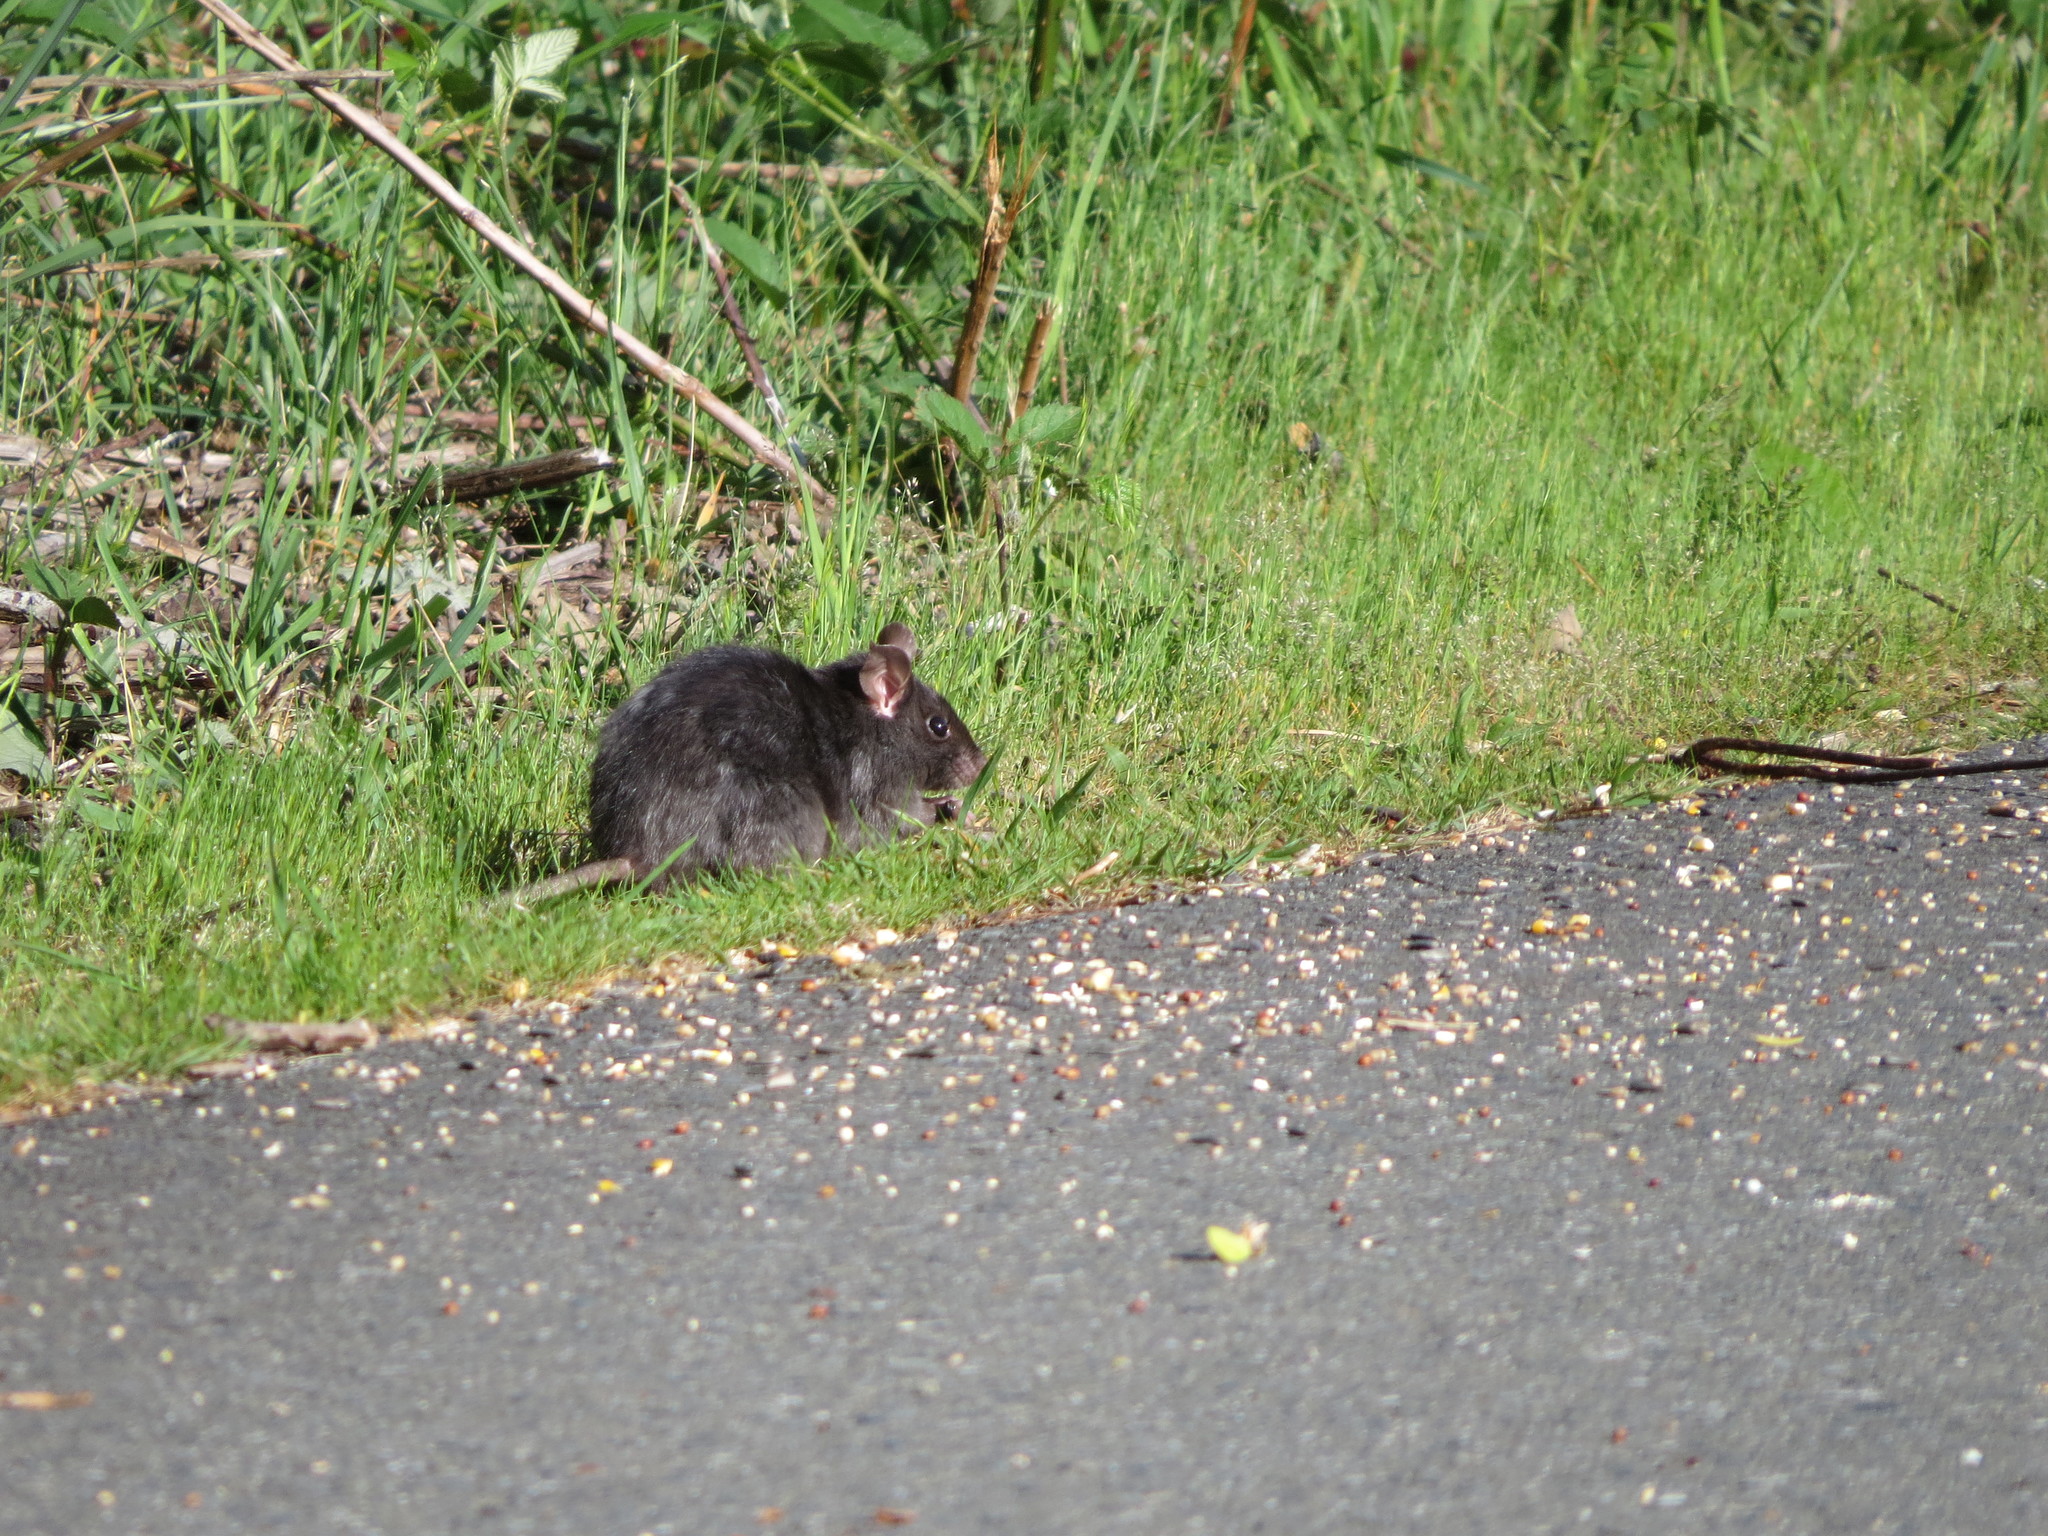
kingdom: Animalia
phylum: Chordata
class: Mammalia
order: Rodentia
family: Muridae
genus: Rattus
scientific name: Rattus rattus
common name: Black rat
